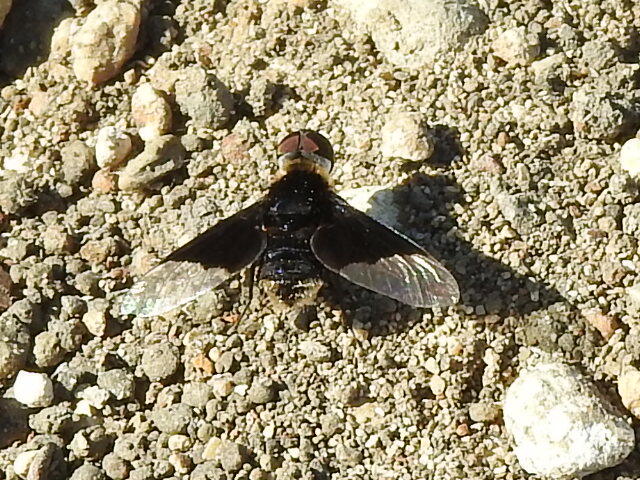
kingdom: Animalia
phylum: Arthropoda
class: Insecta
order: Diptera
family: Bombyliidae
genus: Ins
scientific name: Ins celeris
